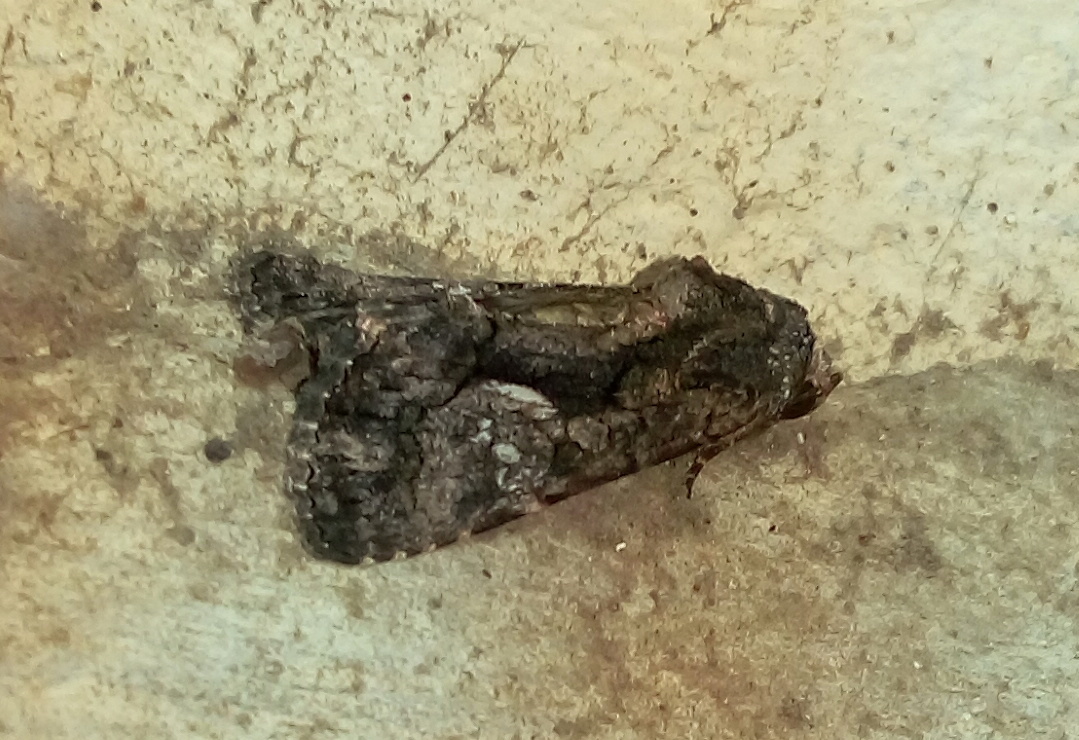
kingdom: Animalia
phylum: Arthropoda
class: Insecta
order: Lepidoptera
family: Noctuidae
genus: Aedia
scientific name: Aedia leucomelas
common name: Sorcerer
